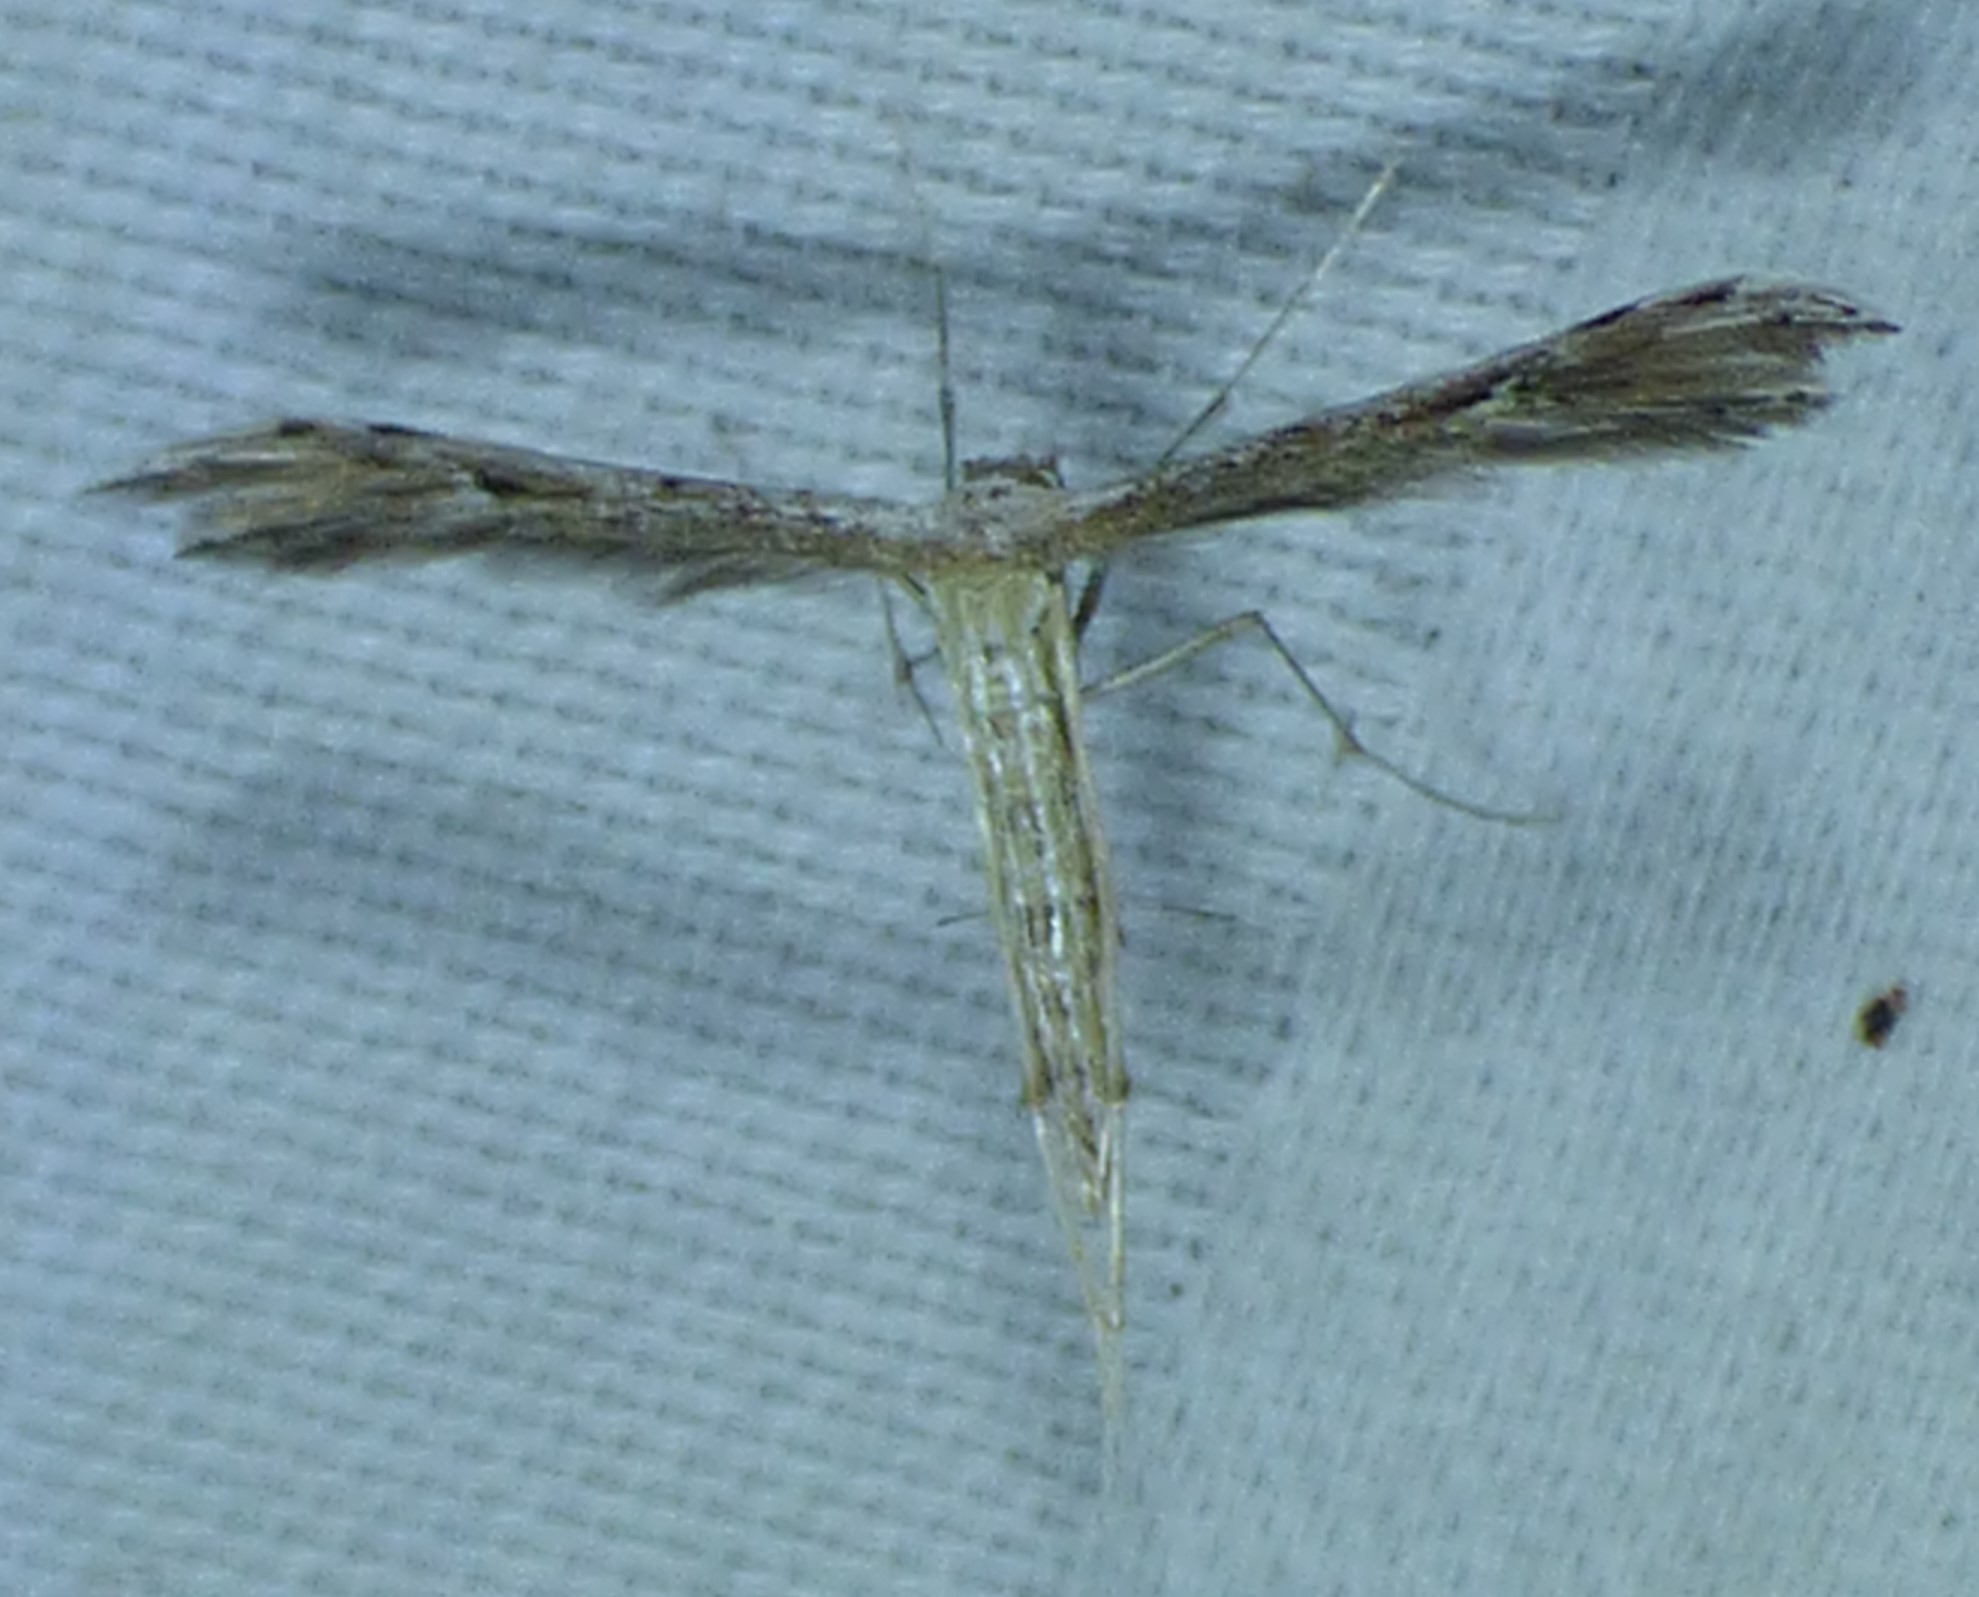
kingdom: Animalia
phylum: Arthropoda
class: Insecta
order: Lepidoptera
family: Pterophoridae
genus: Pselnophorus
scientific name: Pselnophorus belfragei
